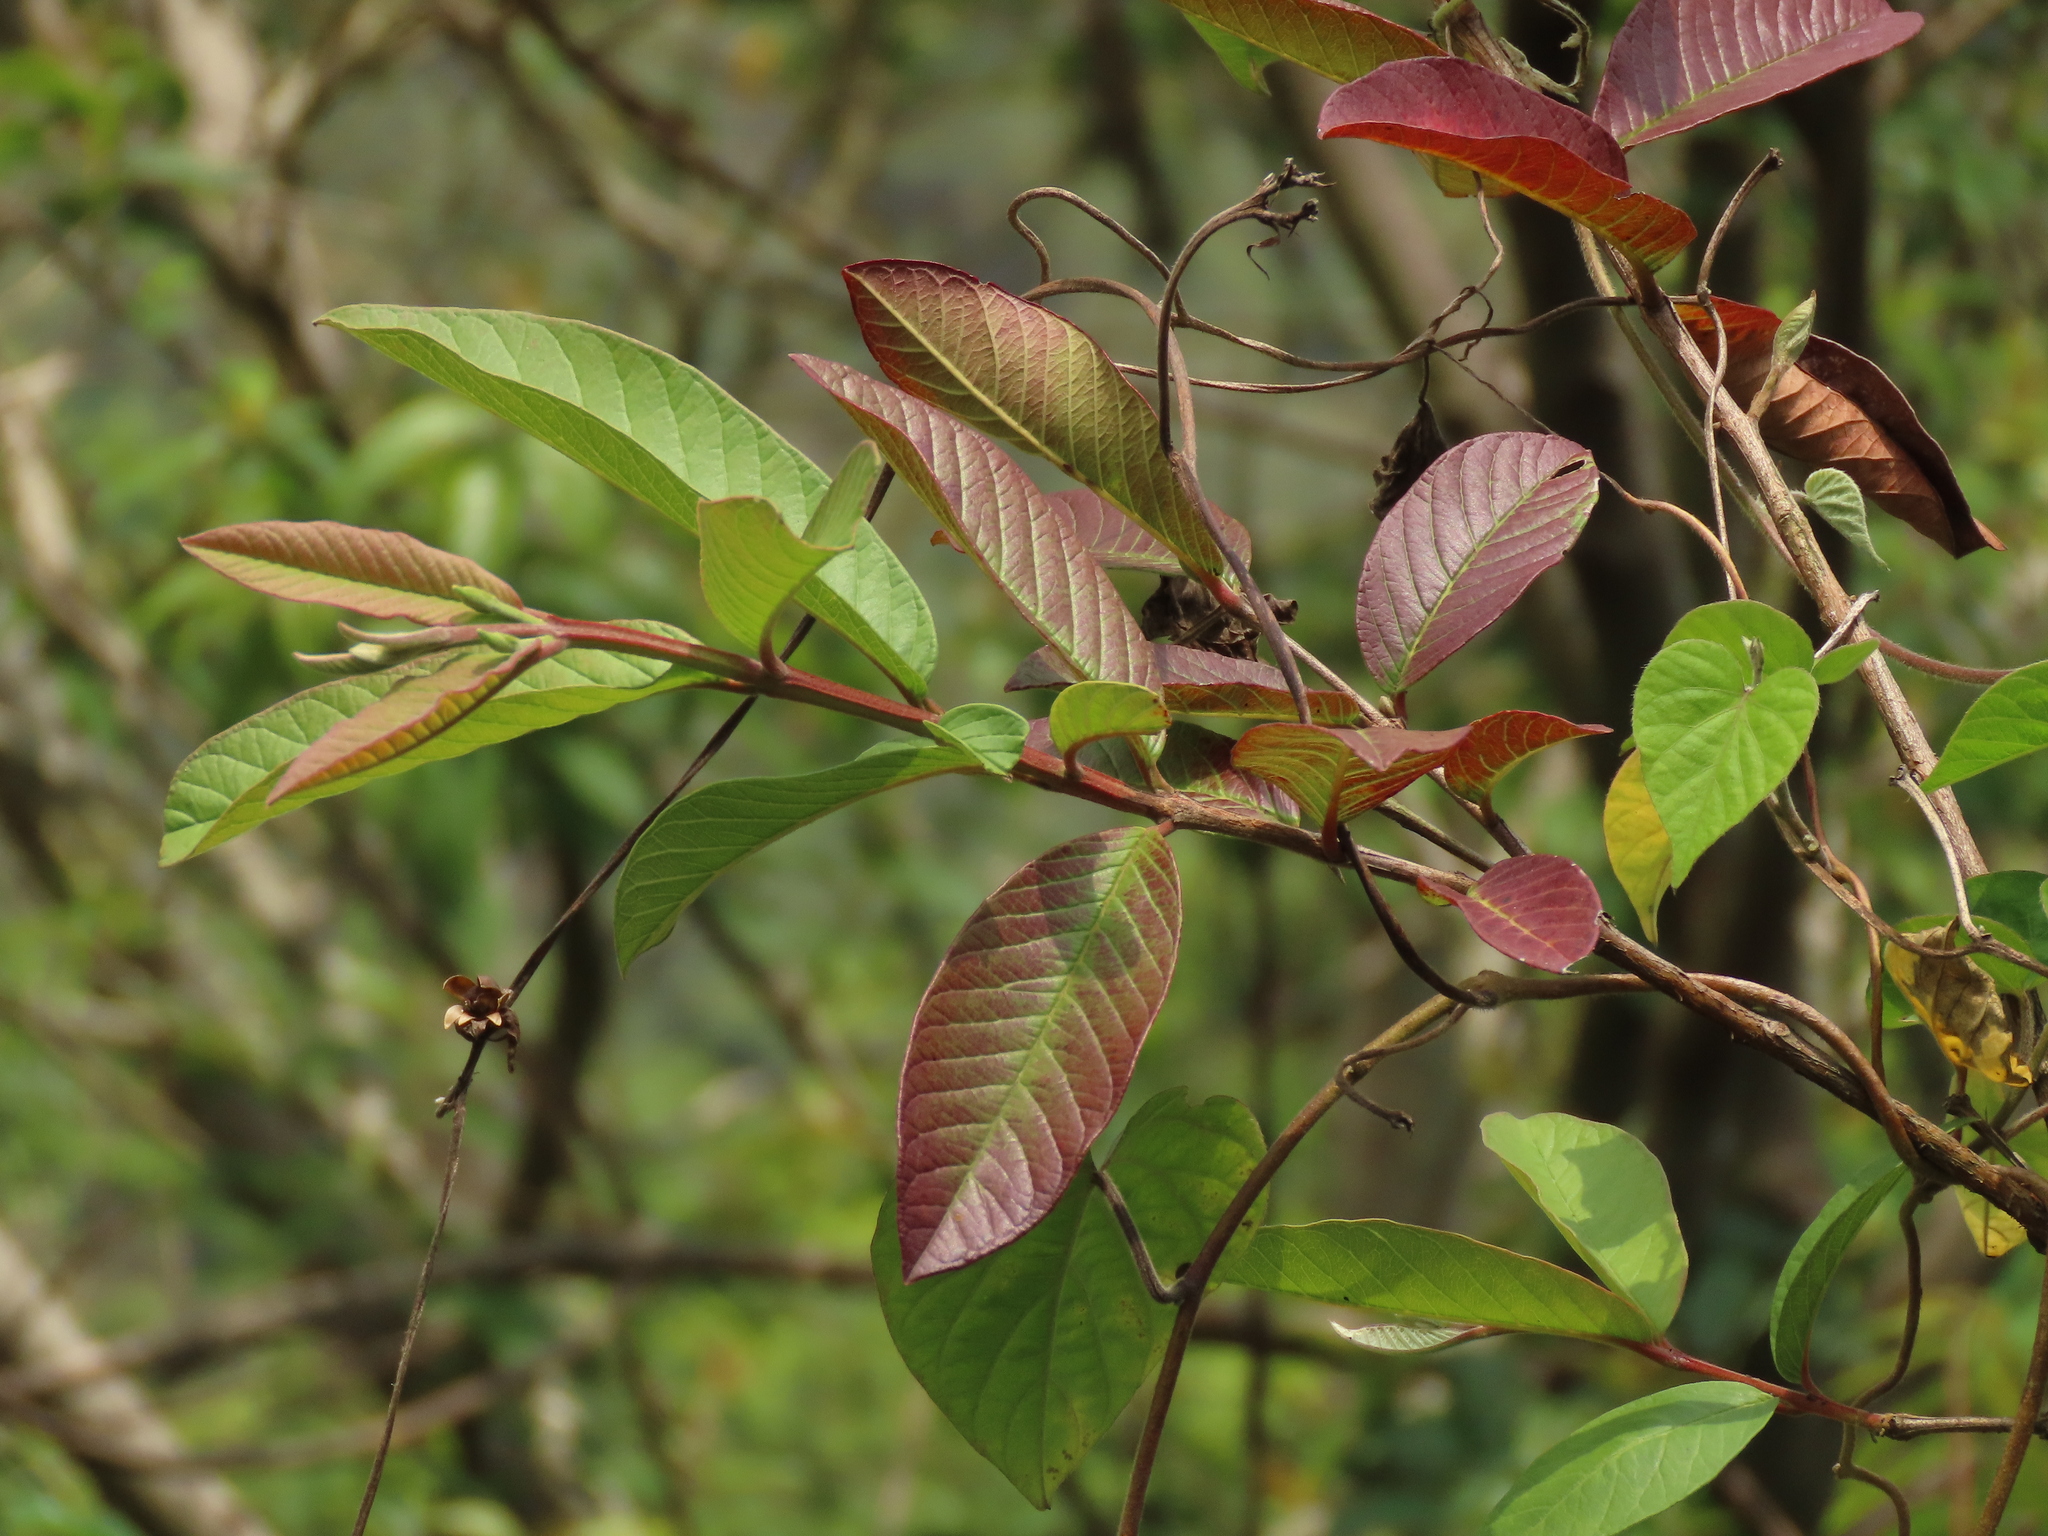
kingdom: Plantae
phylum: Tracheophyta
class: Magnoliopsida
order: Myrtales
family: Myrtaceae
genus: Psidium
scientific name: Psidium guajava
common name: Guava
